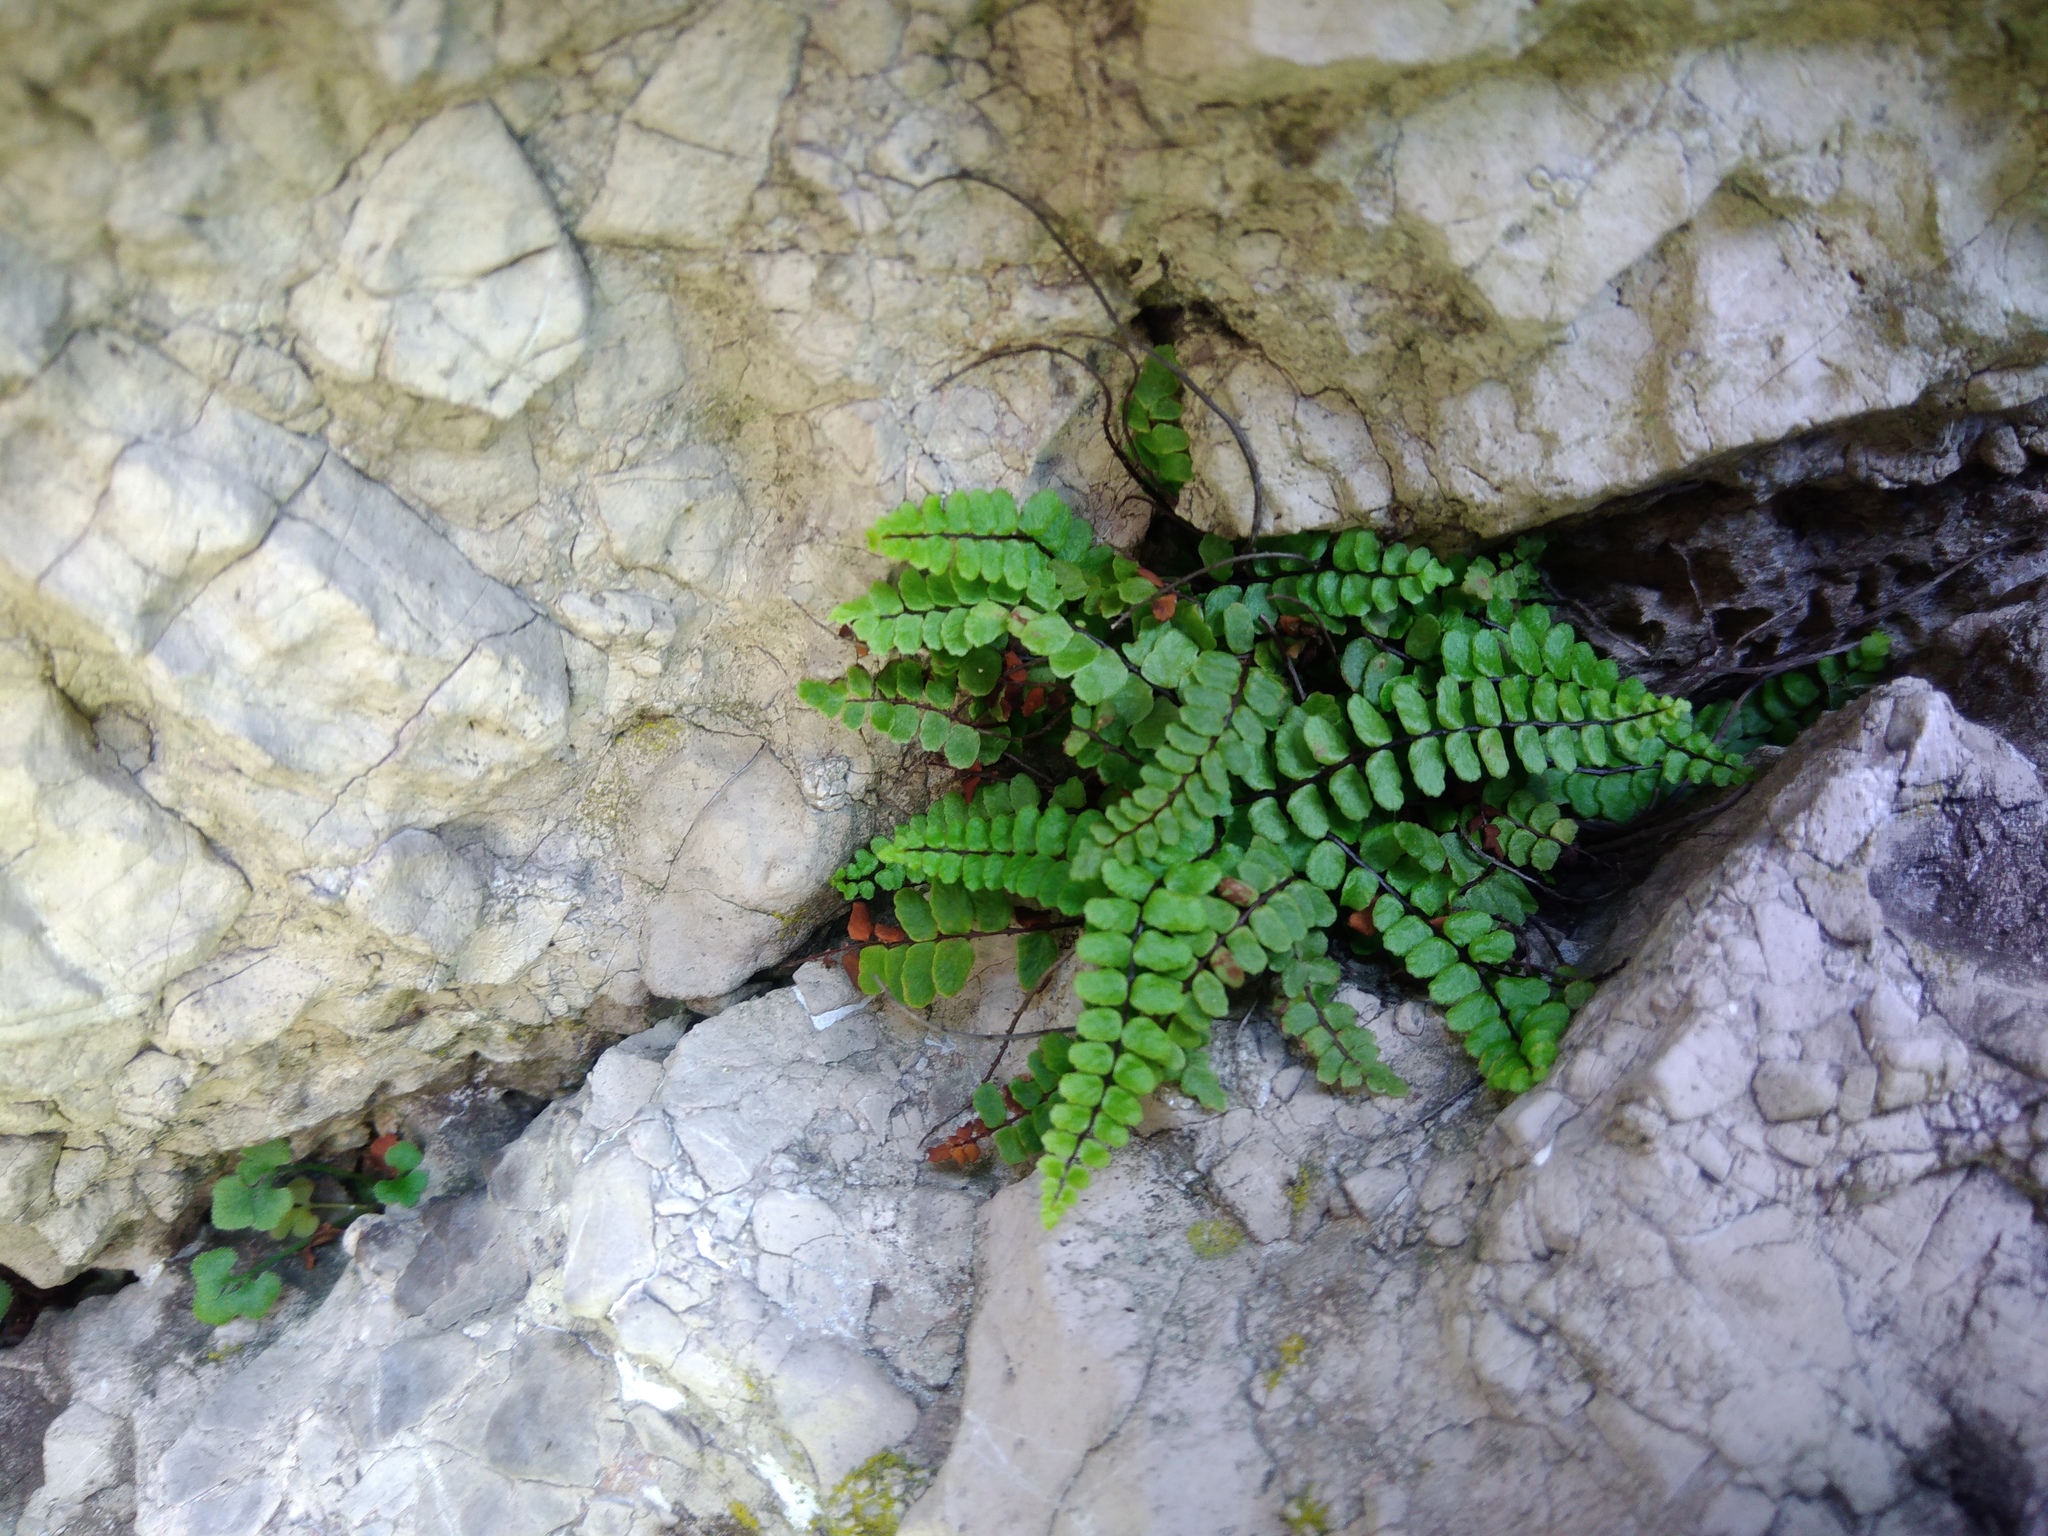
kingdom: Plantae
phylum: Tracheophyta
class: Polypodiopsida
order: Polypodiales
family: Aspleniaceae
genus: Asplenium
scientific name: Asplenium trichomanes
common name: Maidenhair spleenwort
